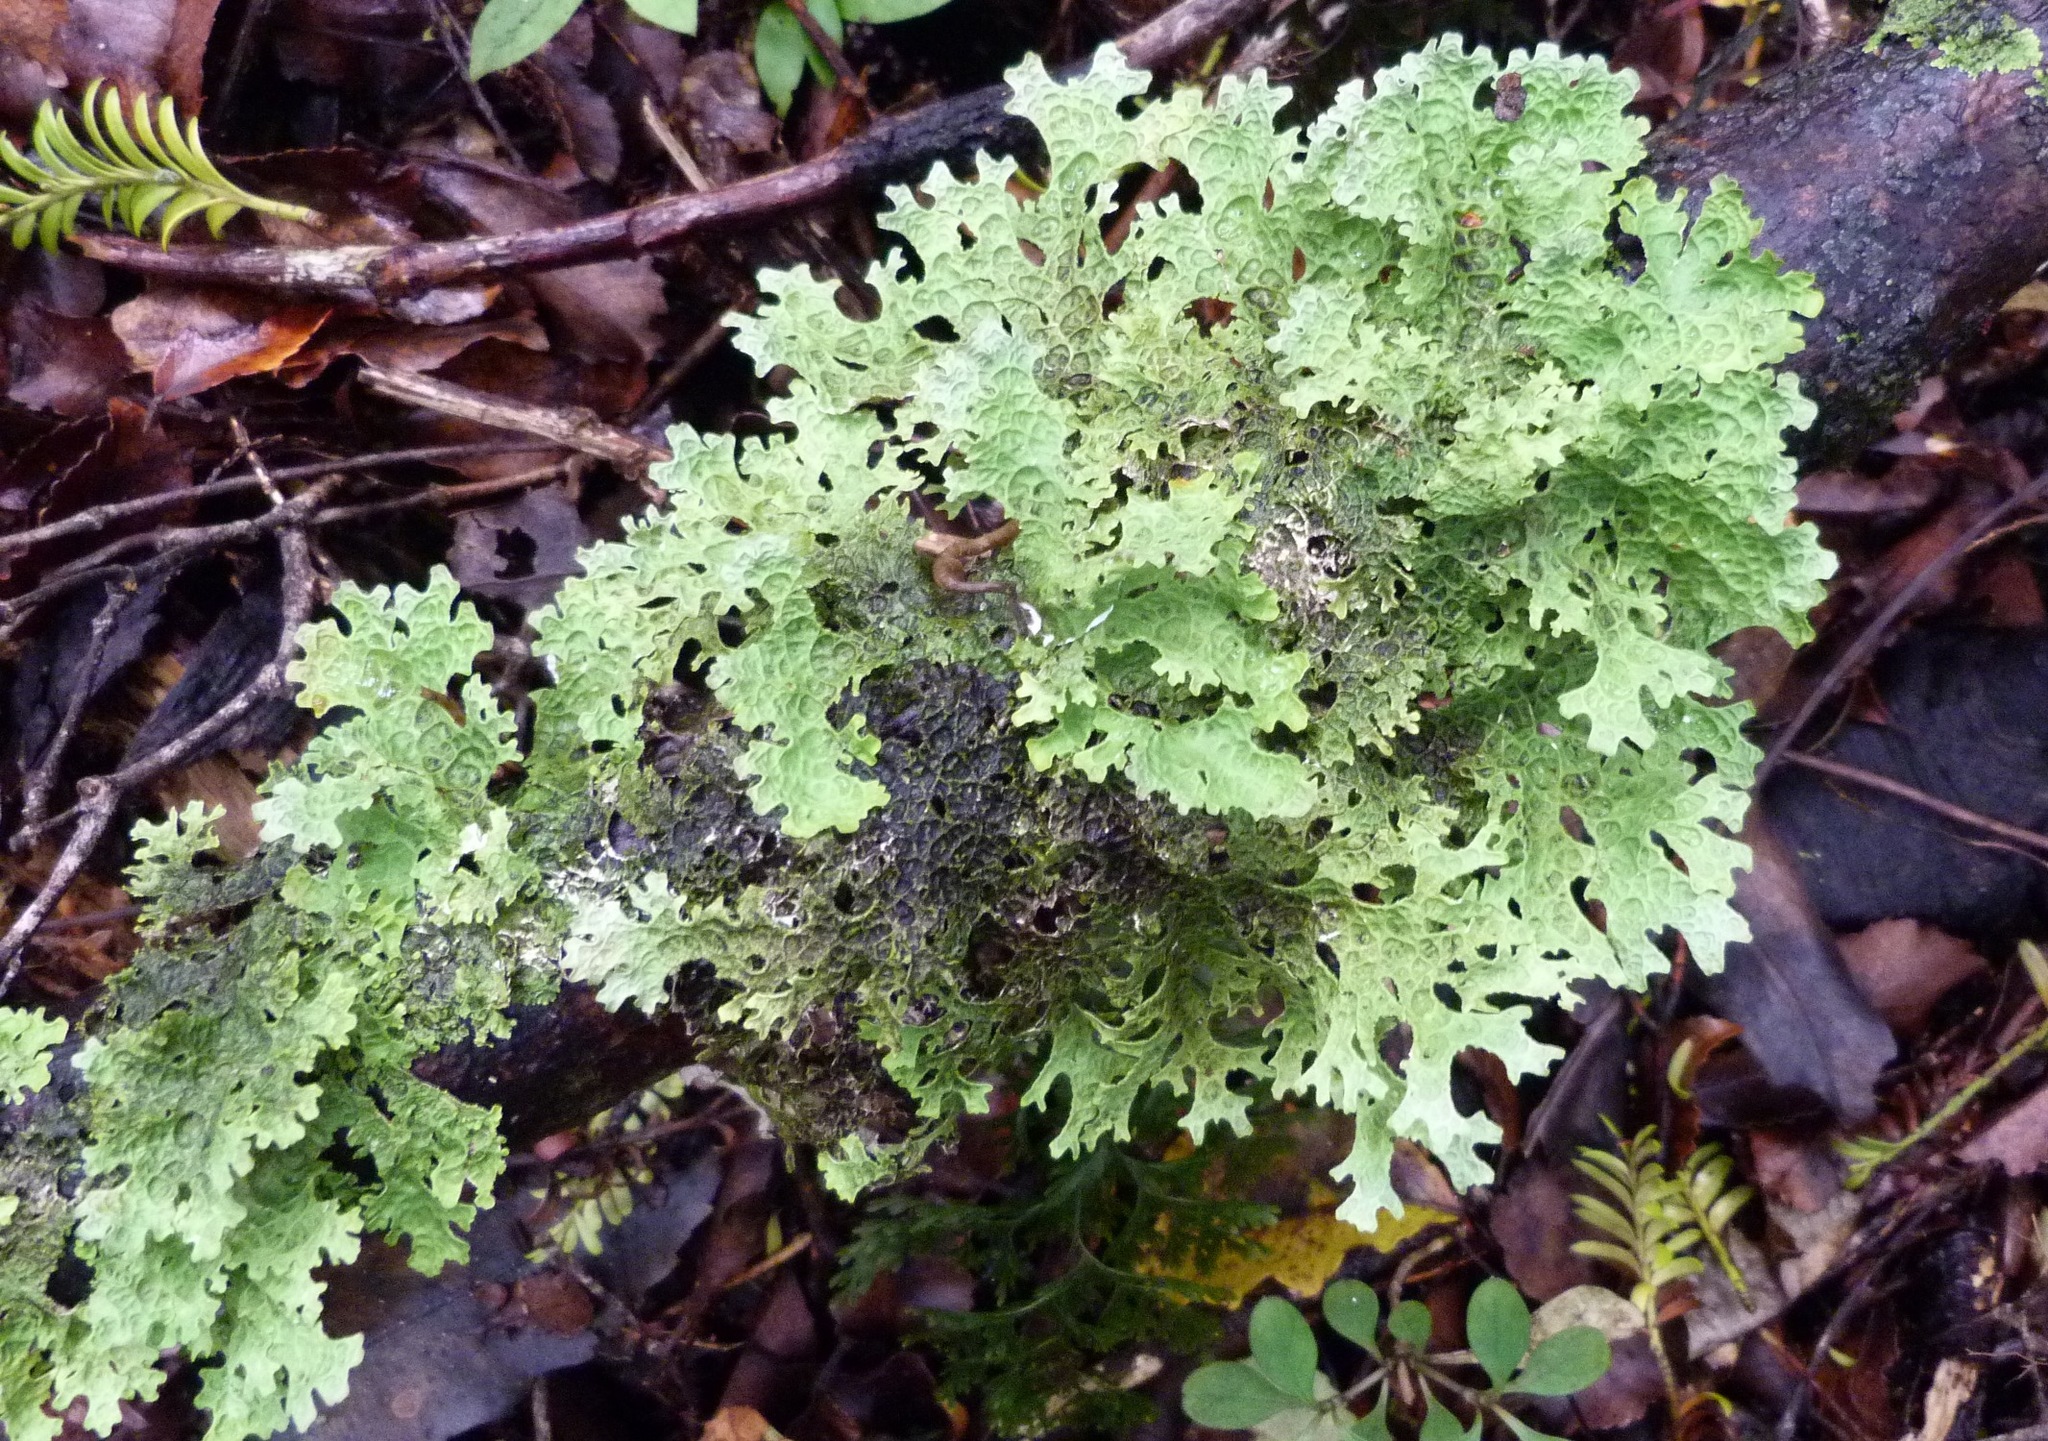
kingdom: Fungi
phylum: Ascomycota
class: Lecanoromycetes
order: Peltigerales
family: Lobariaceae
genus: Pseudocyphellaria
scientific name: Pseudocyphellaria faveolata
